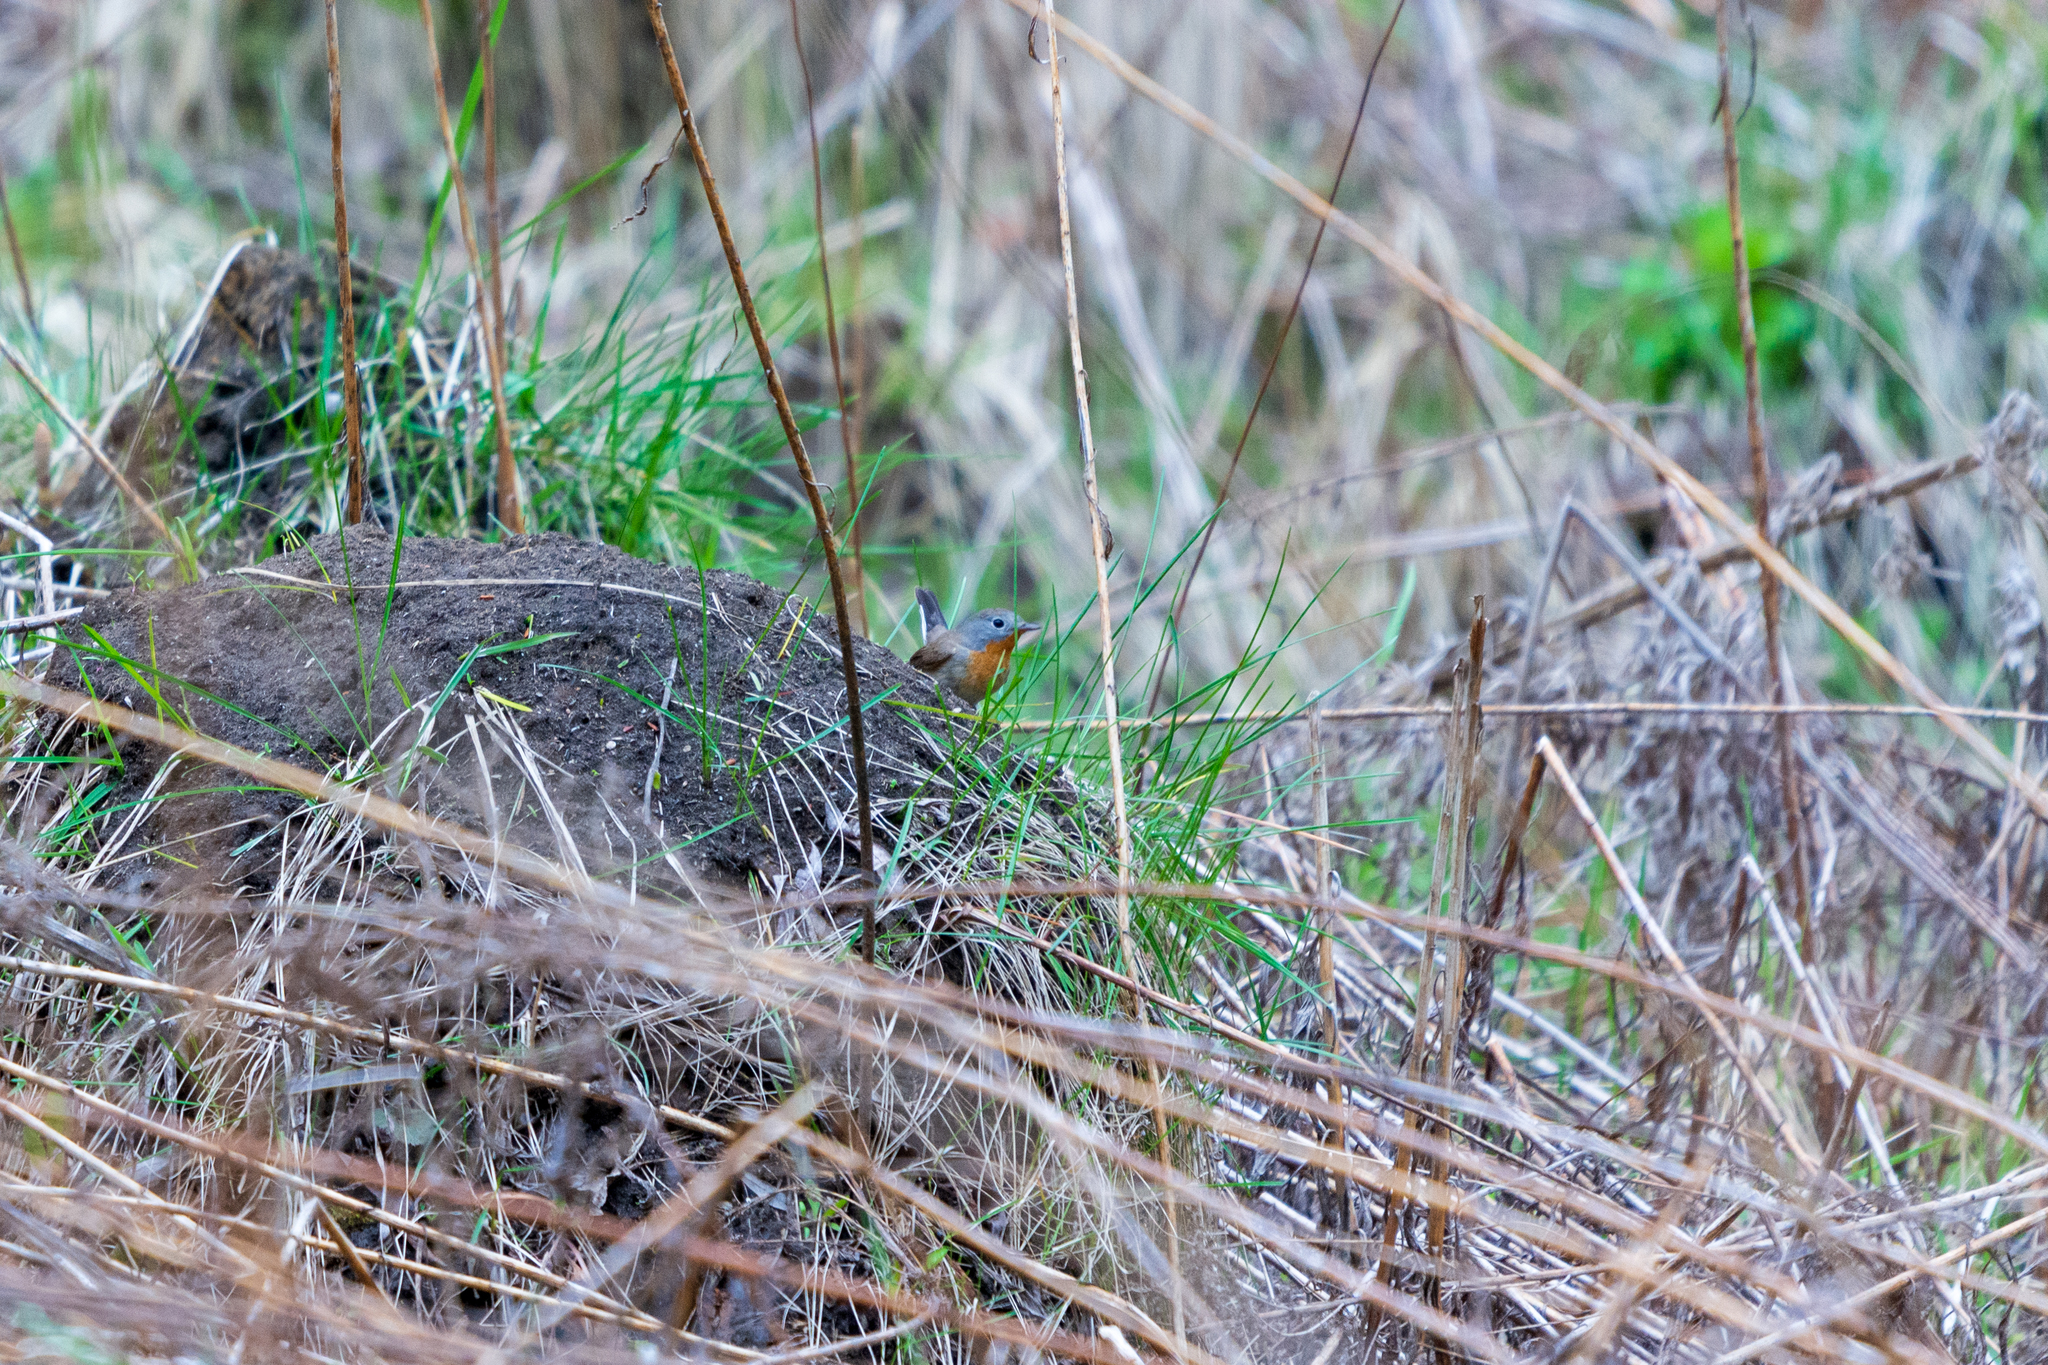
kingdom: Animalia
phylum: Chordata
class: Aves
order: Passeriformes
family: Muscicapidae
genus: Ficedula
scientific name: Ficedula parva
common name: Red-breasted flycatcher
